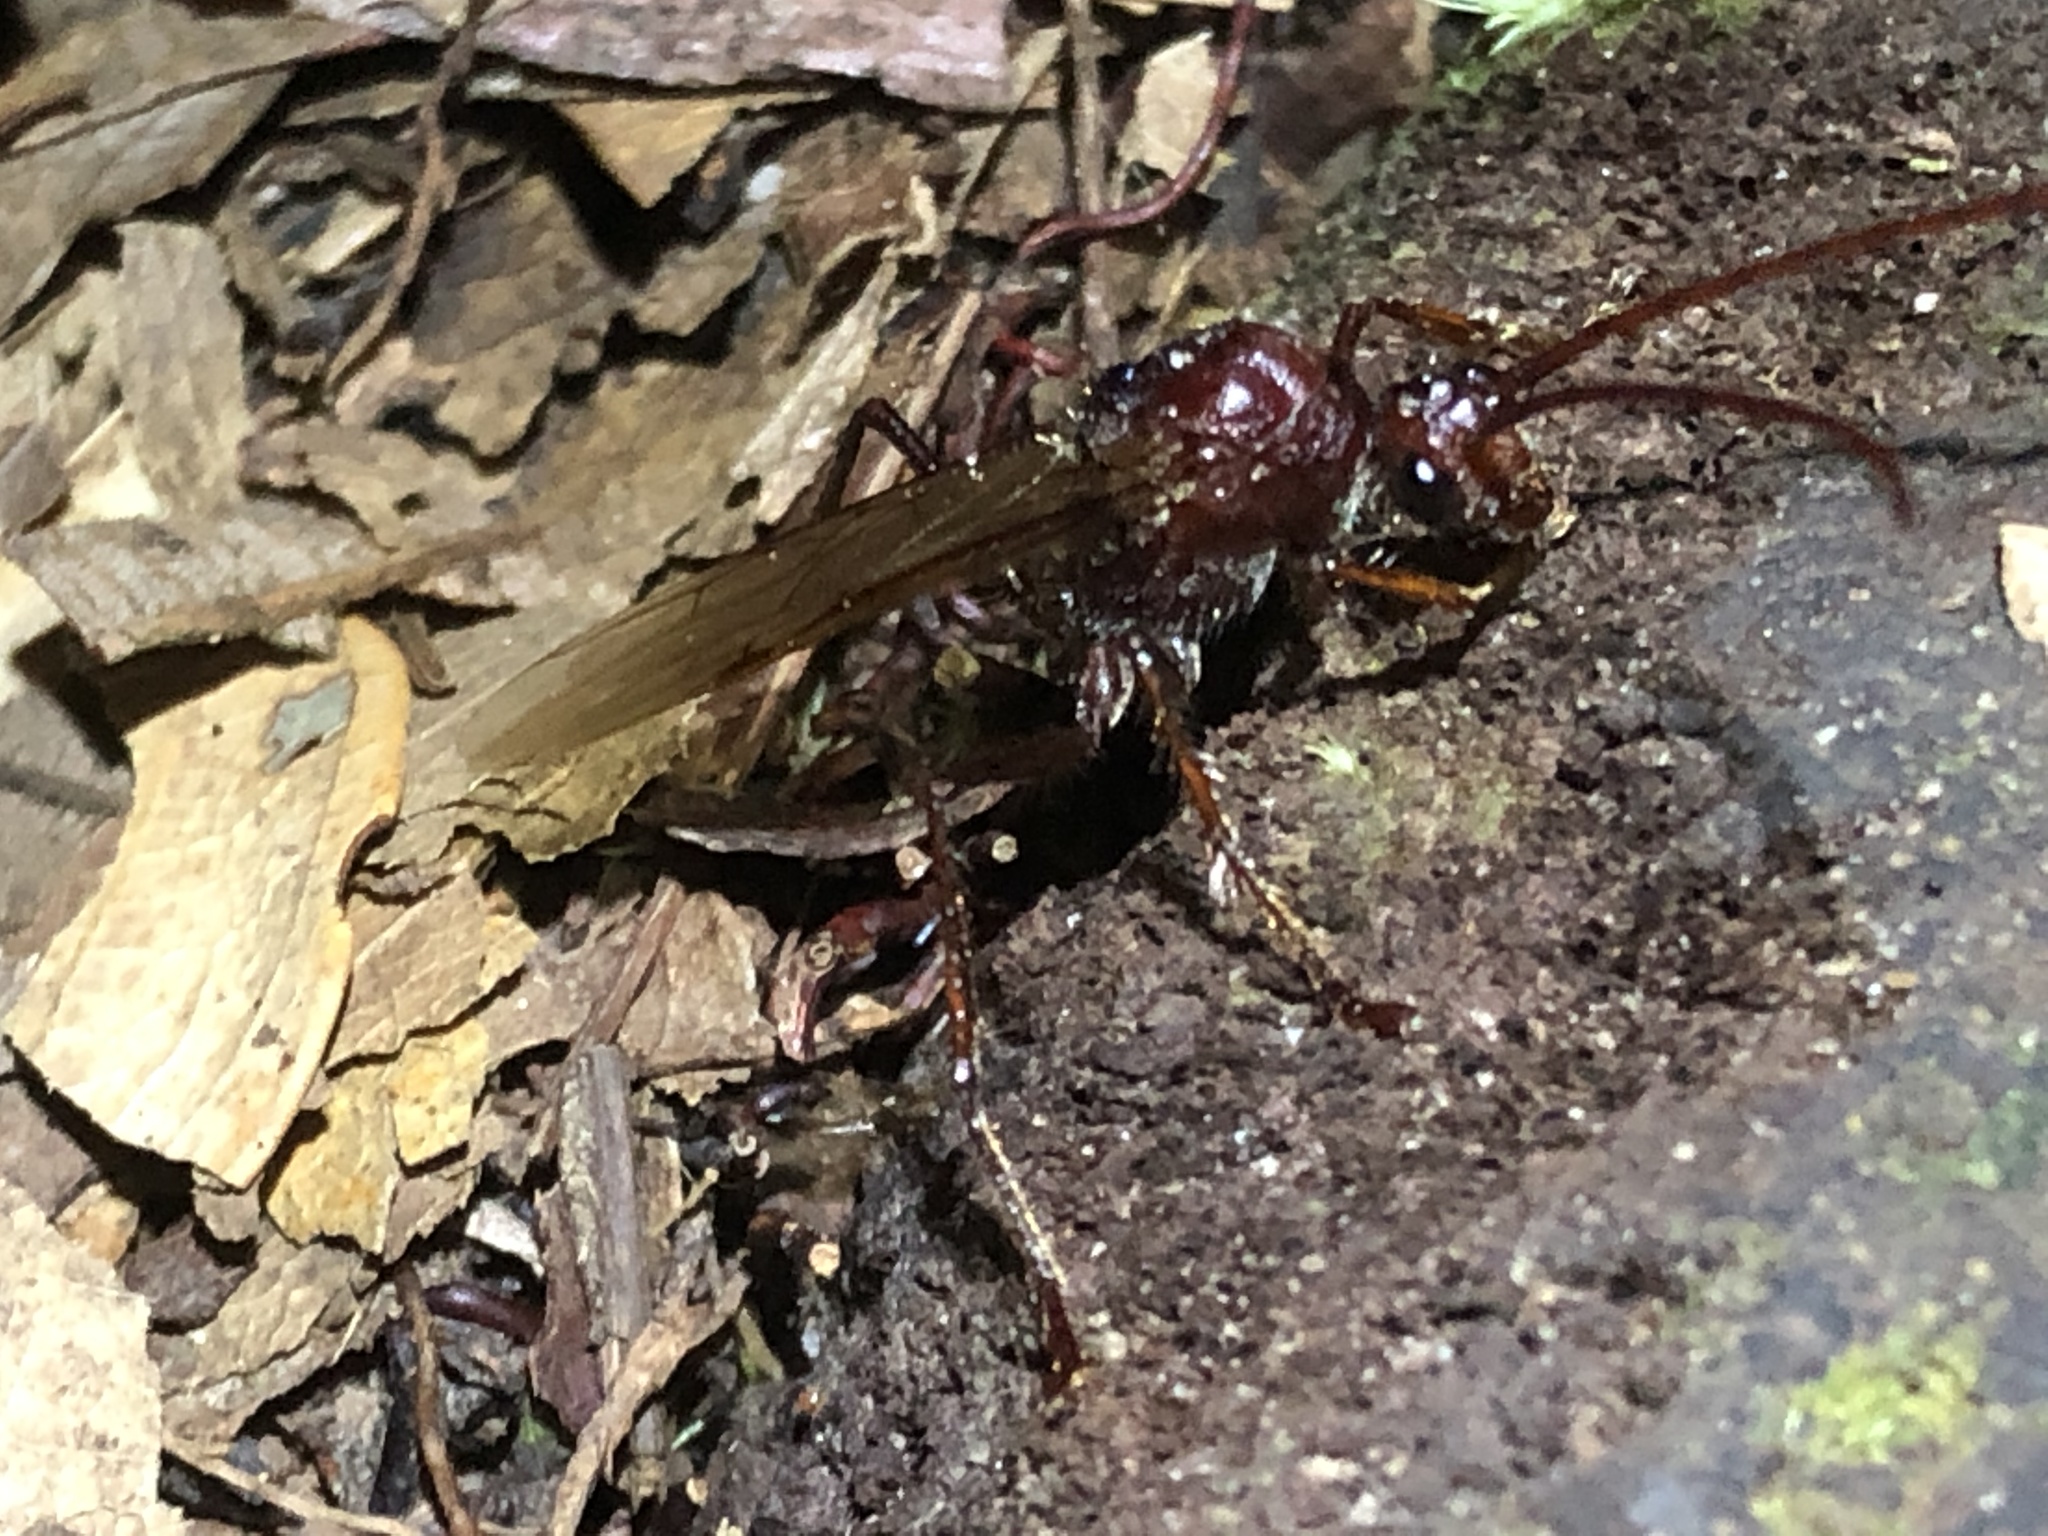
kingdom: Animalia
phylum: Arthropoda
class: Insecta
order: Hymenoptera
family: Formicidae
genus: Paraponera
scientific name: Paraponera clavata
